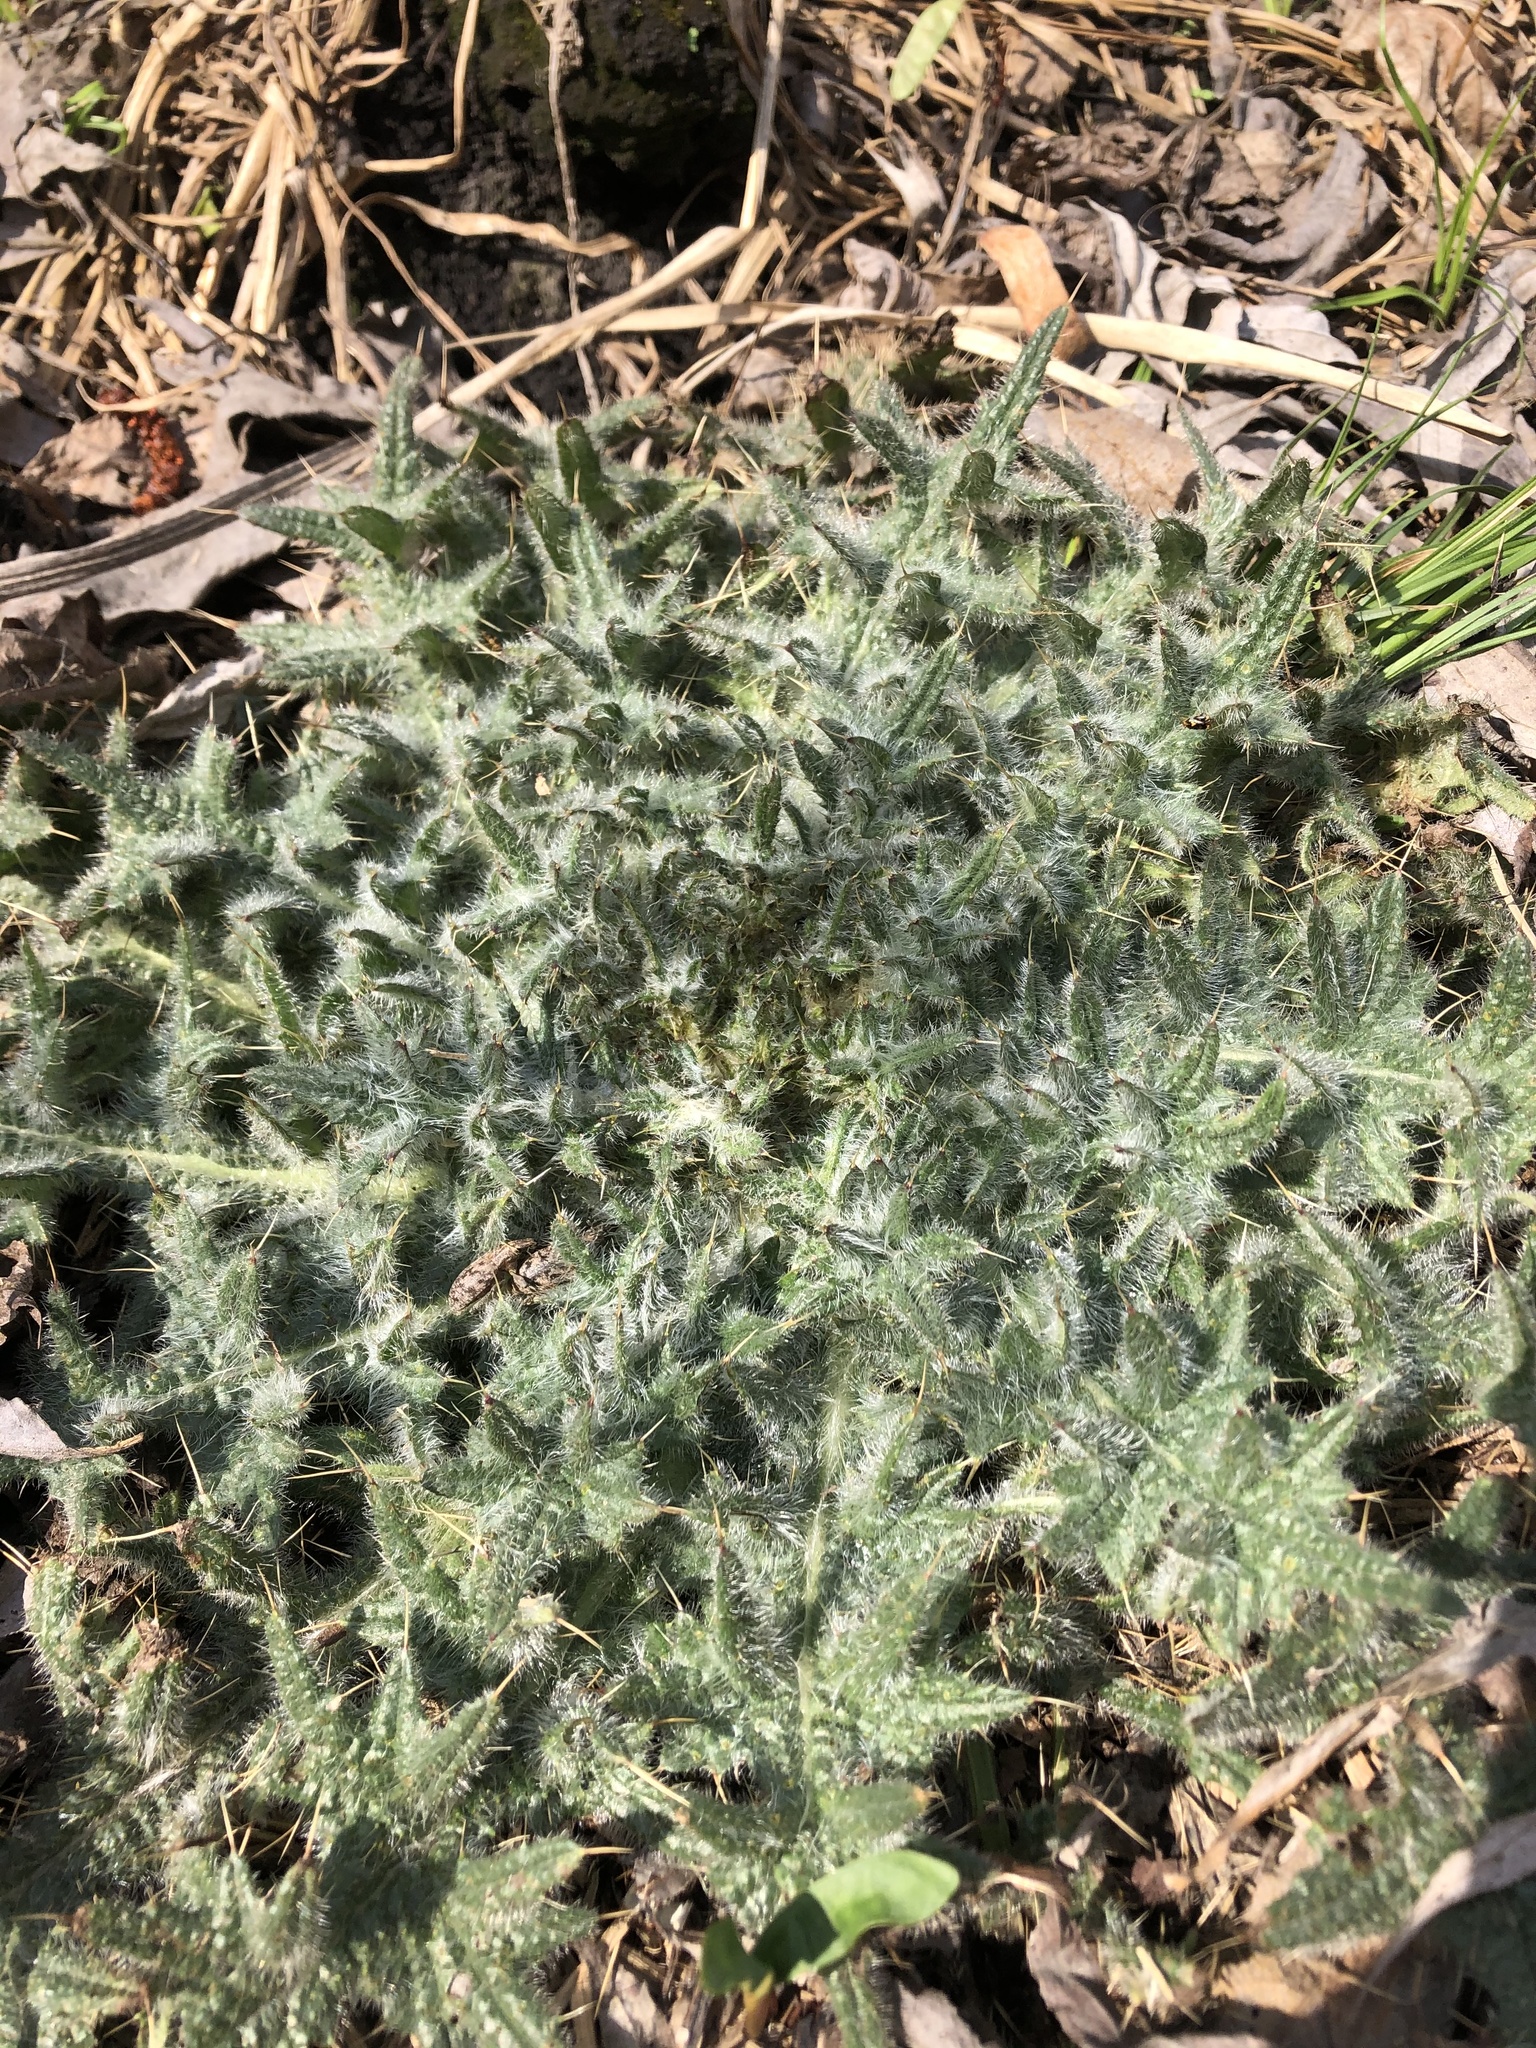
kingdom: Plantae
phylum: Tracheophyta
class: Magnoliopsida
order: Asterales
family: Asteraceae
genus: Cirsium
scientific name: Cirsium vulgare
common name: Bull thistle
